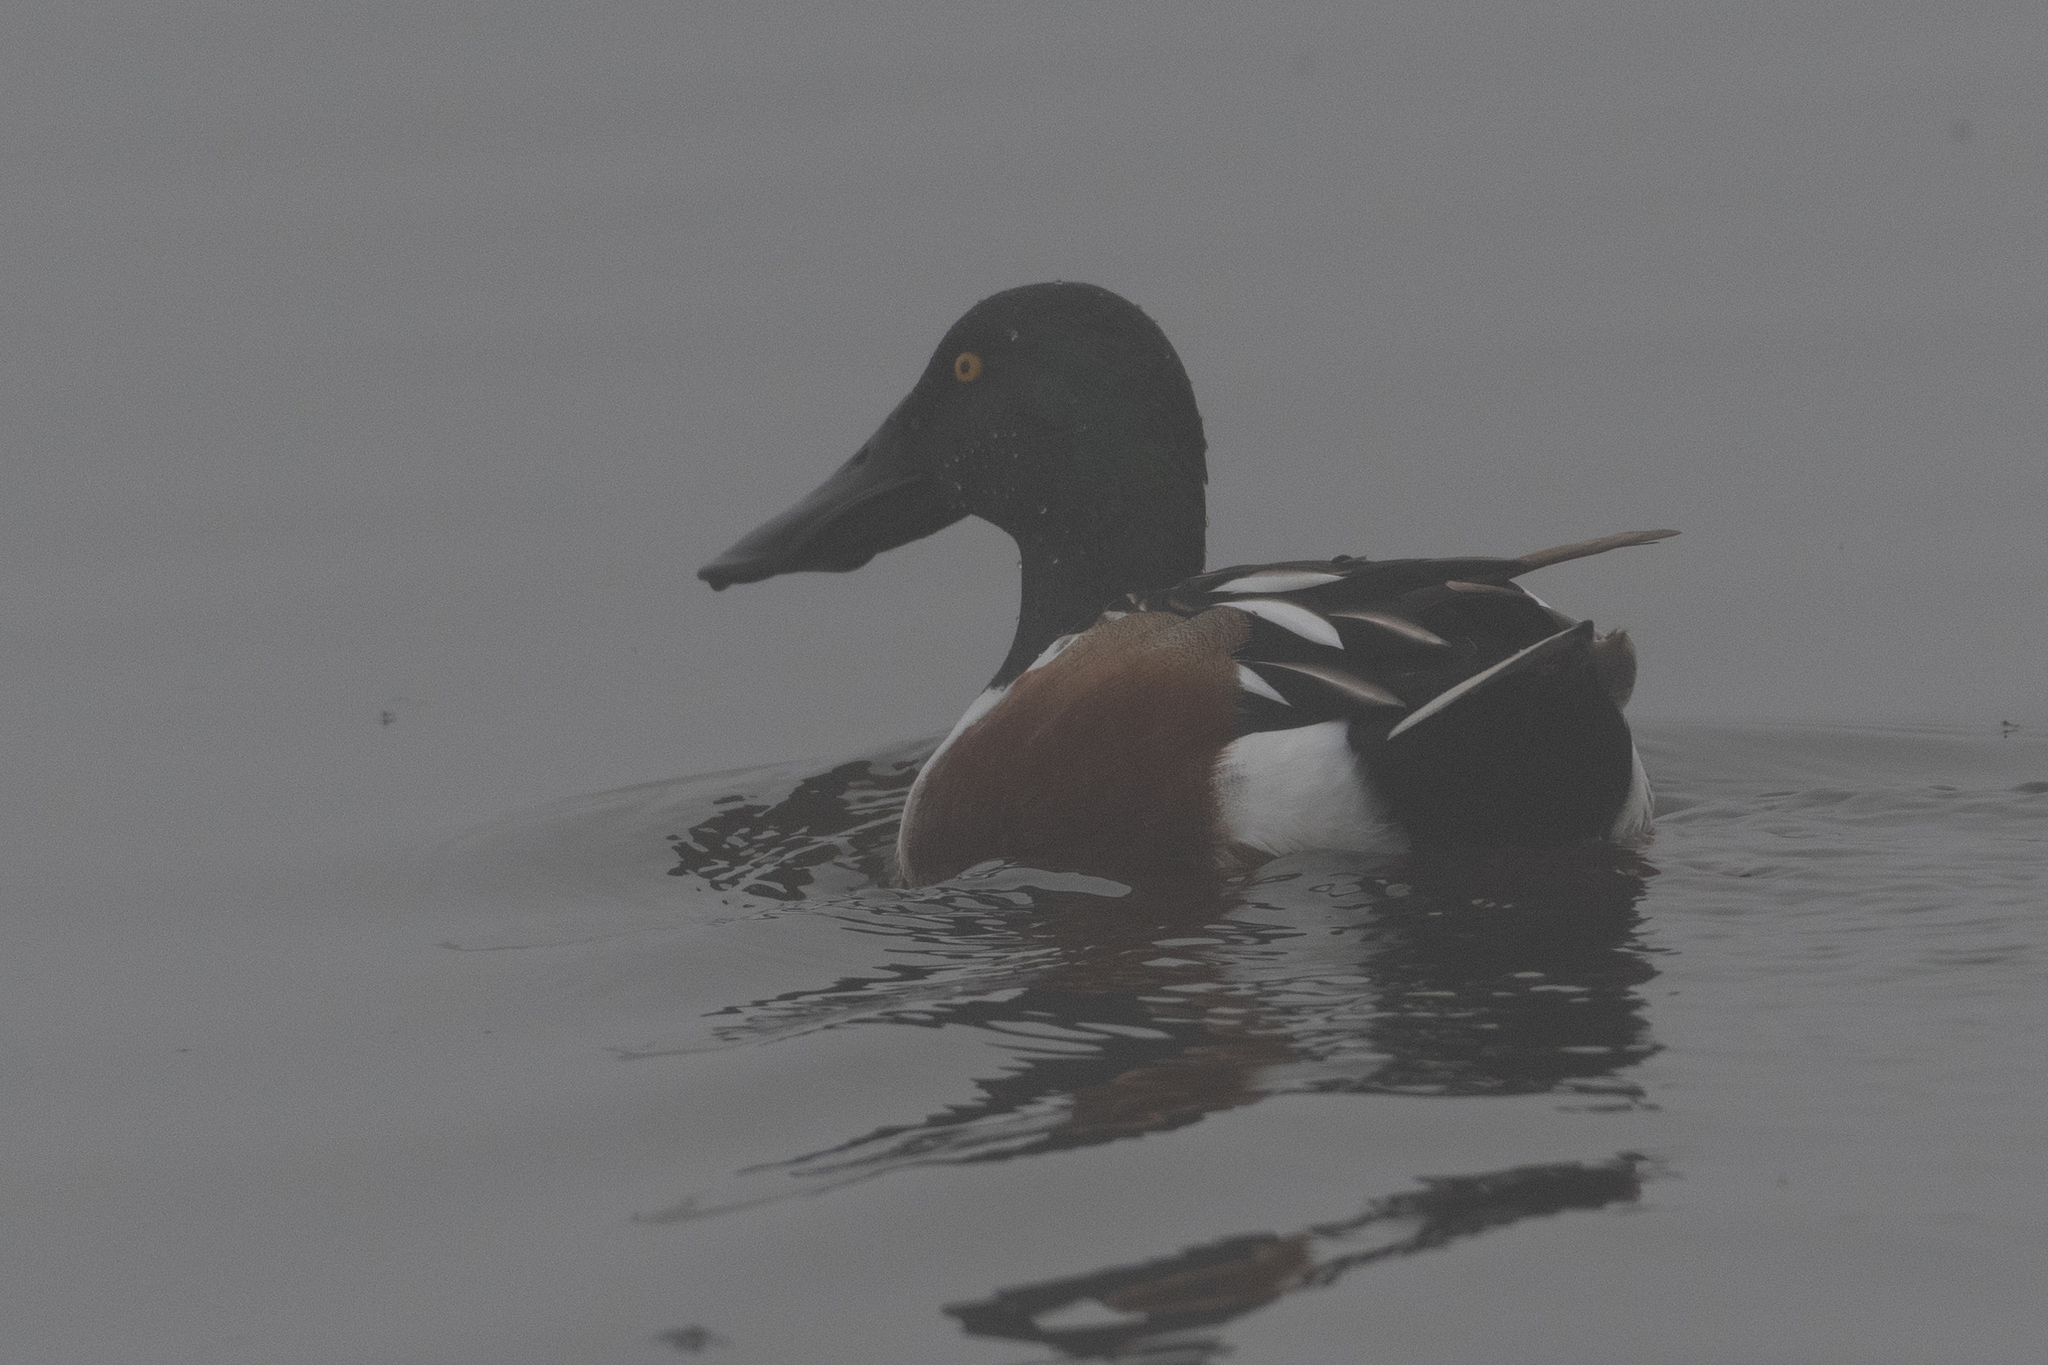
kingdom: Animalia
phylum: Chordata
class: Aves
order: Anseriformes
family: Anatidae
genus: Spatula
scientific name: Spatula clypeata
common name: Northern shoveler
